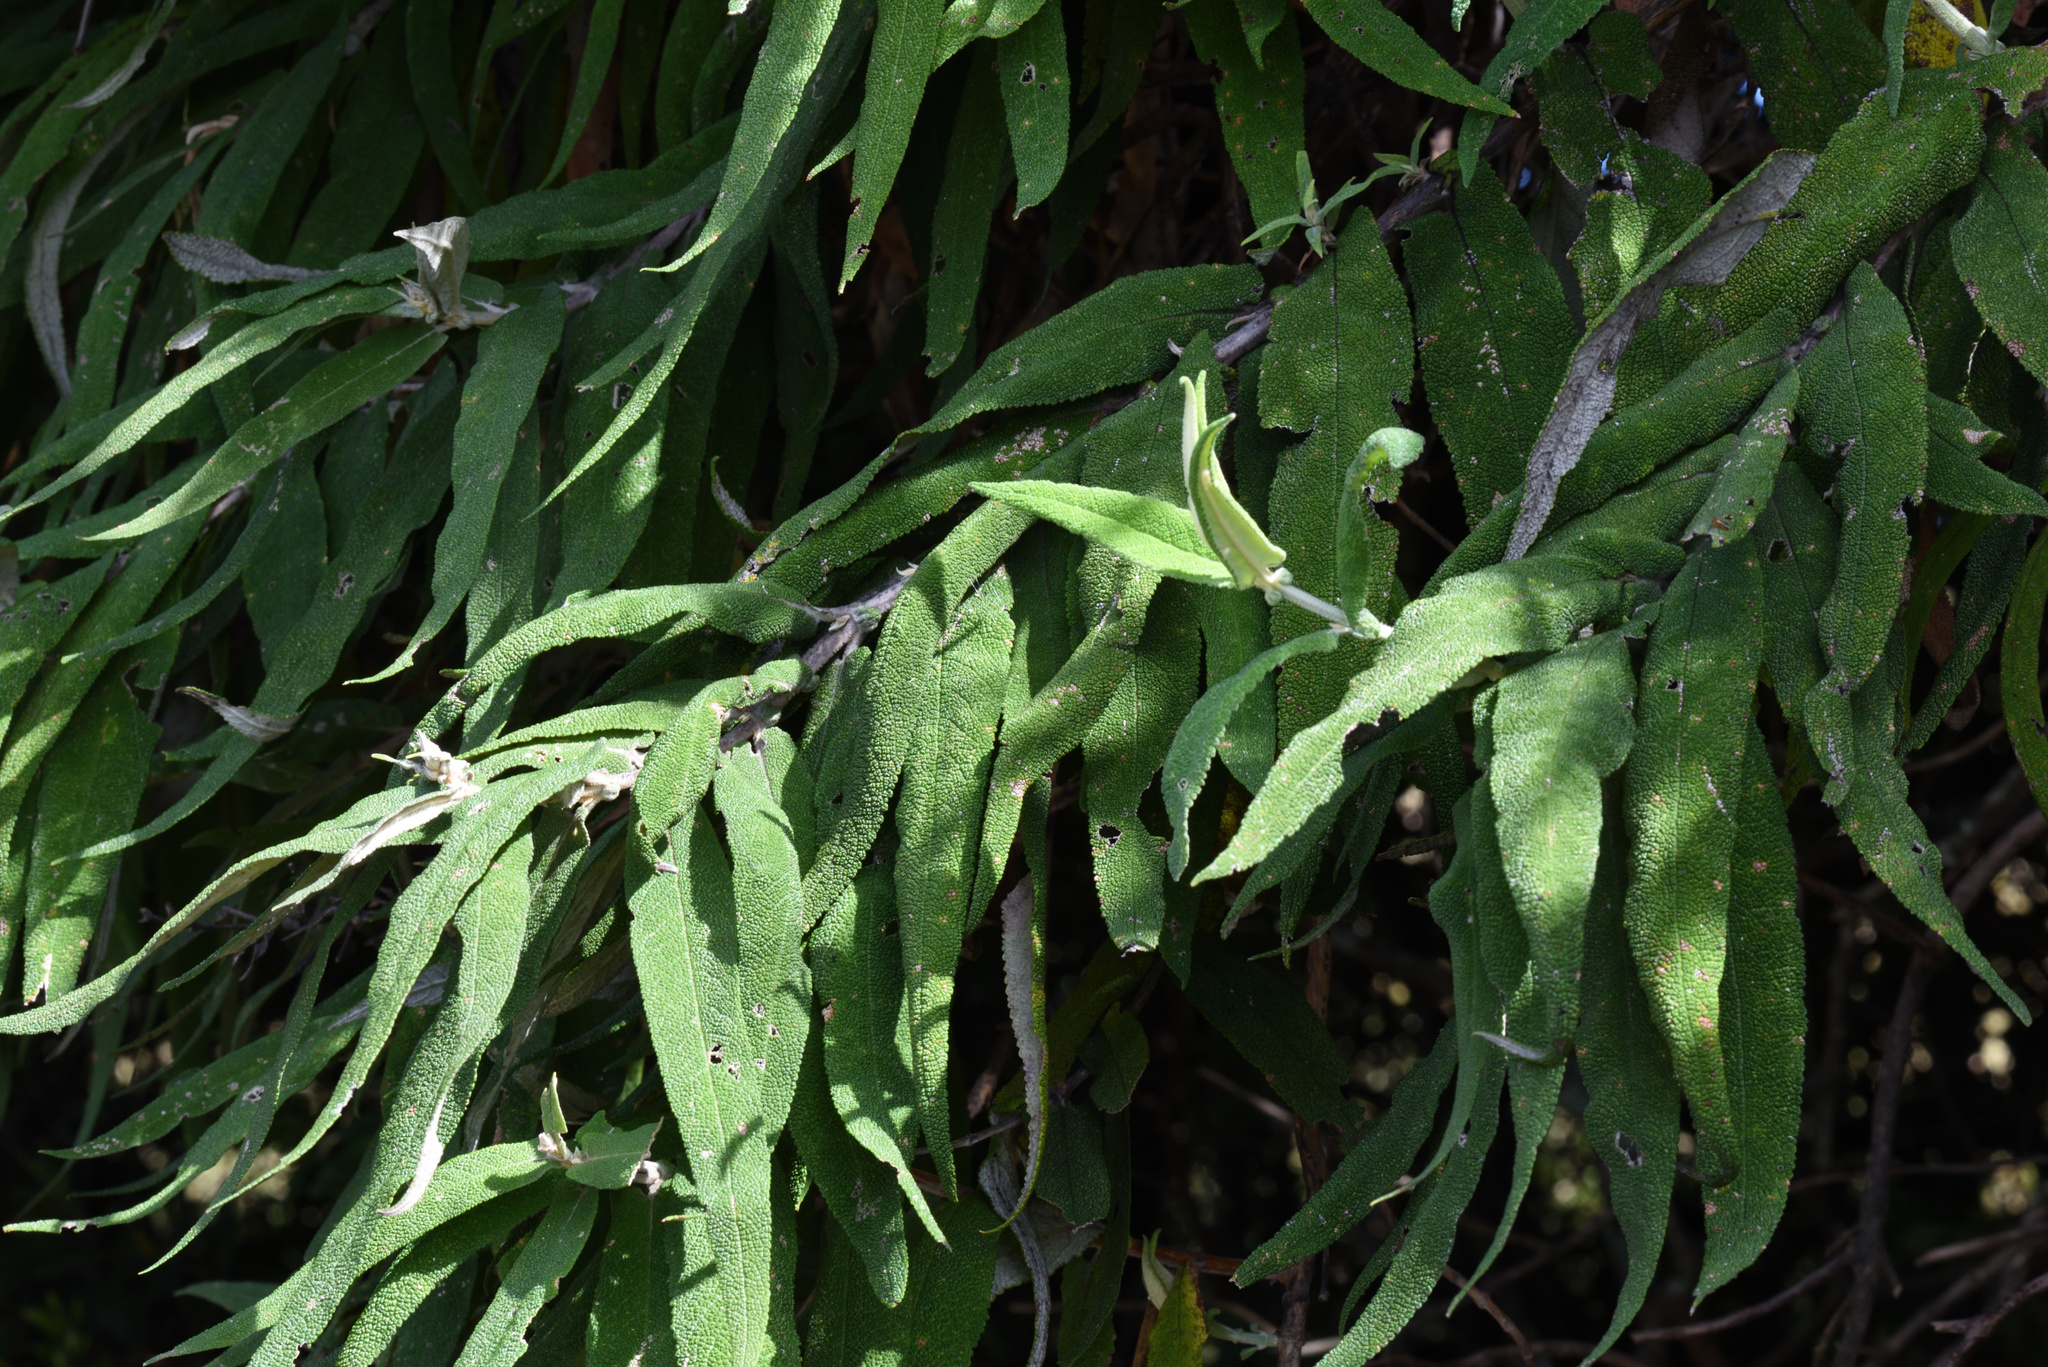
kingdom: Plantae
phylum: Tracheophyta
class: Magnoliopsida
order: Lamiales
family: Scrophulariaceae
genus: Buddleja
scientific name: Buddleja salviifolia
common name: Sagewood
